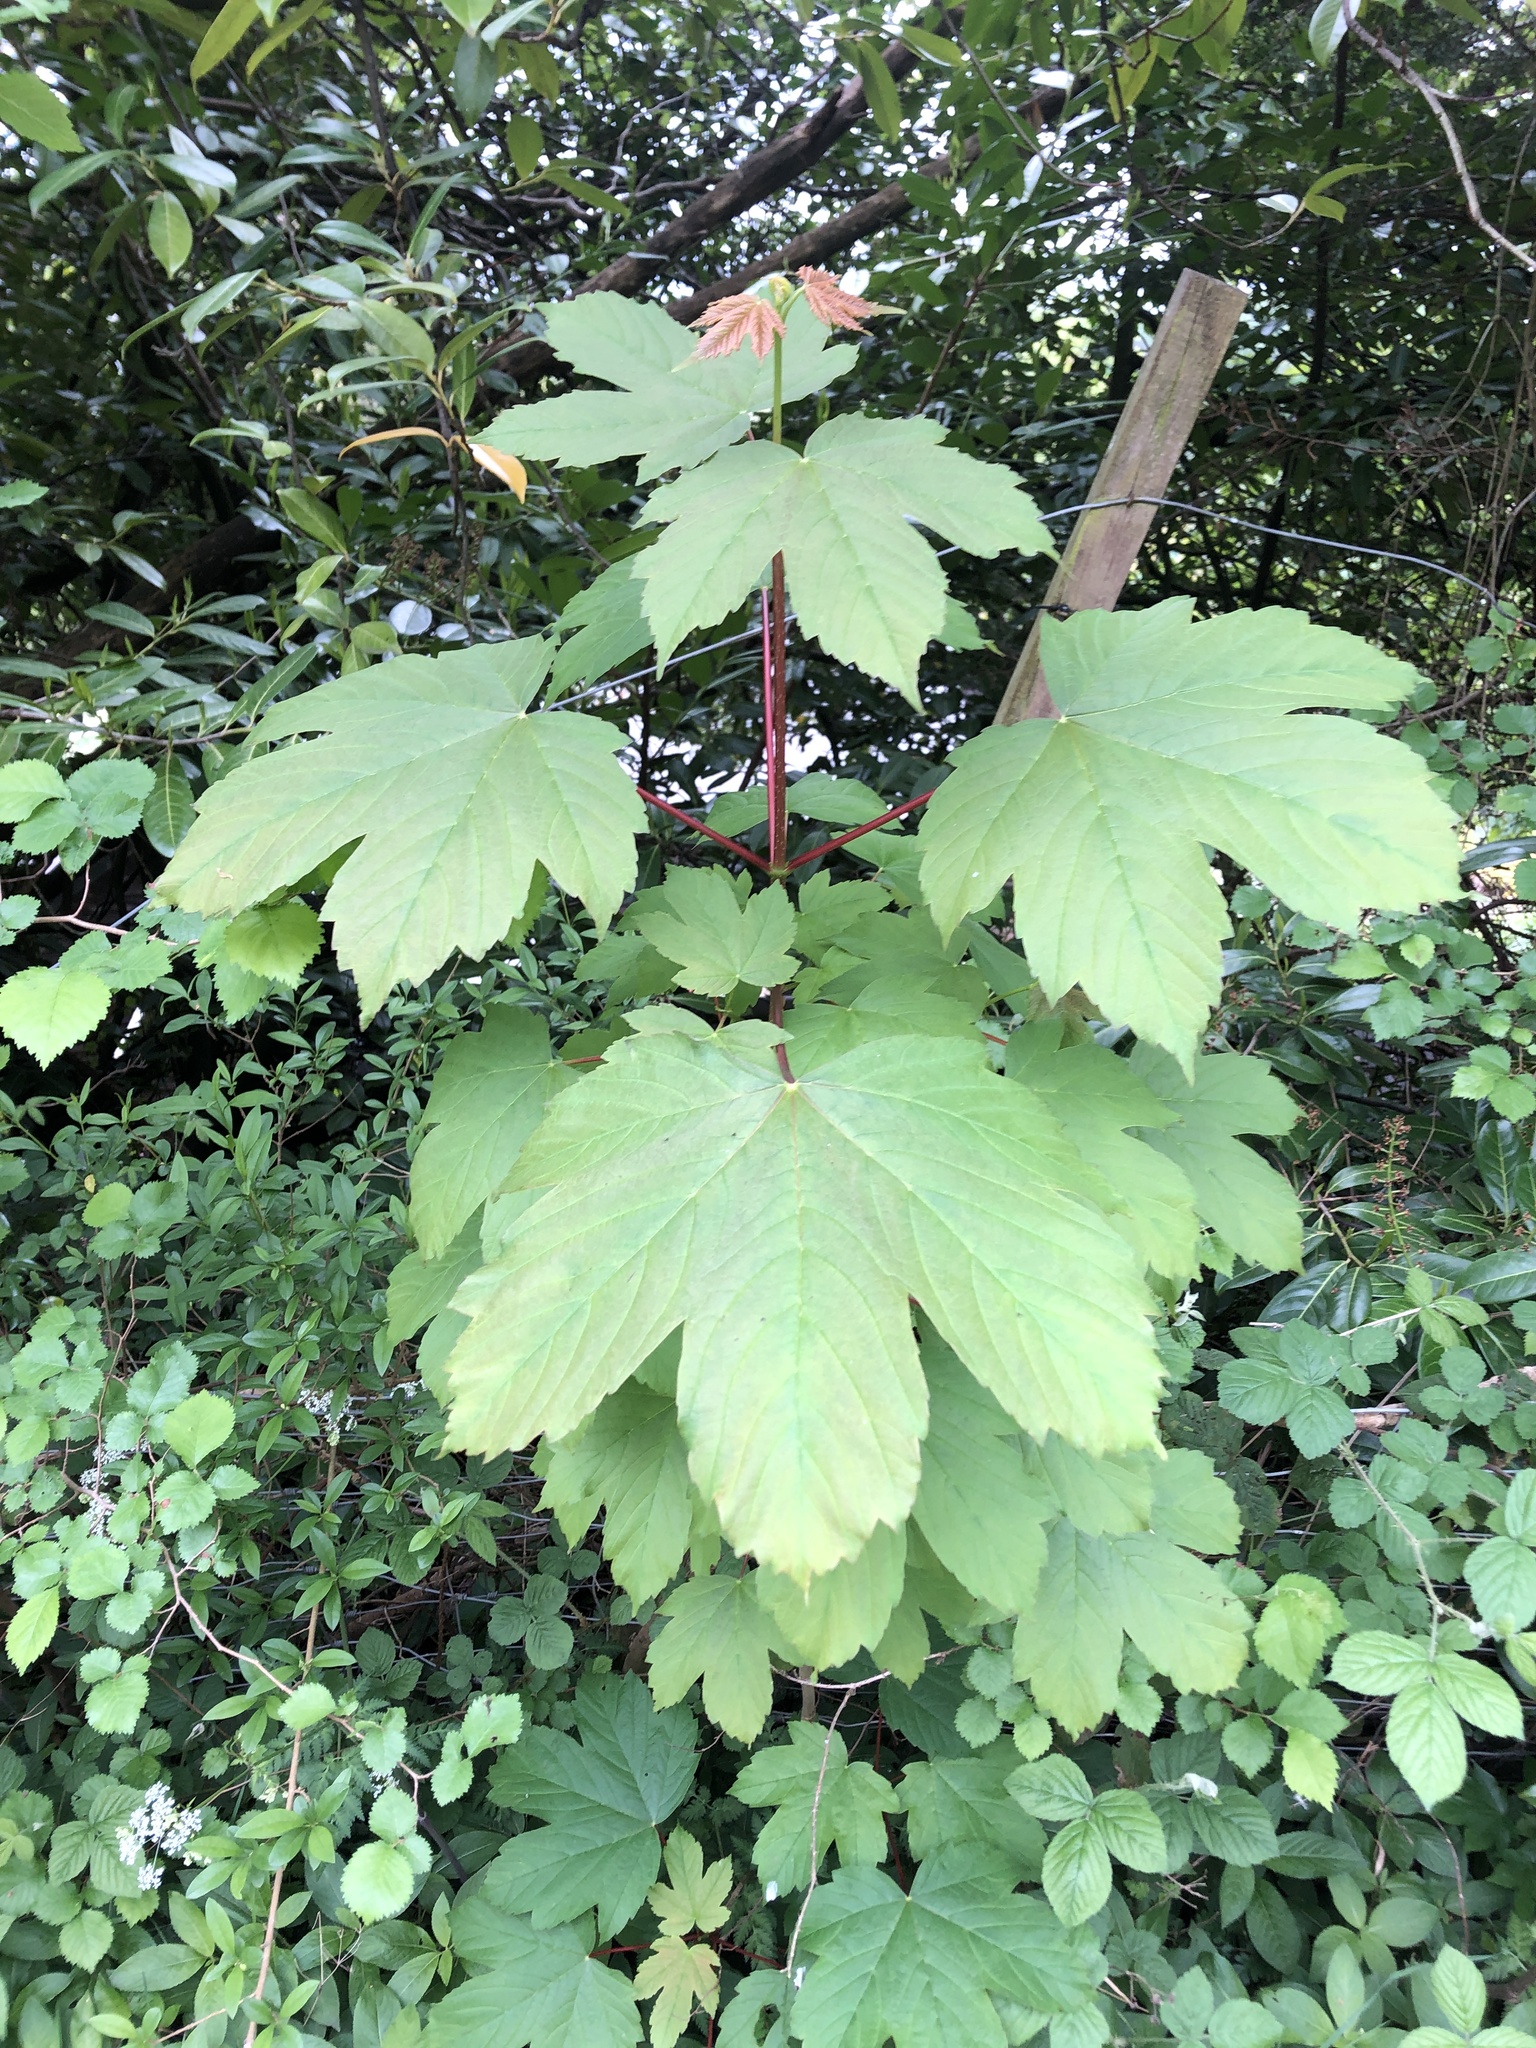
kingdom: Plantae
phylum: Tracheophyta
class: Magnoliopsida
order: Sapindales
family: Sapindaceae
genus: Acer
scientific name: Acer pseudoplatanus
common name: Sycamore
